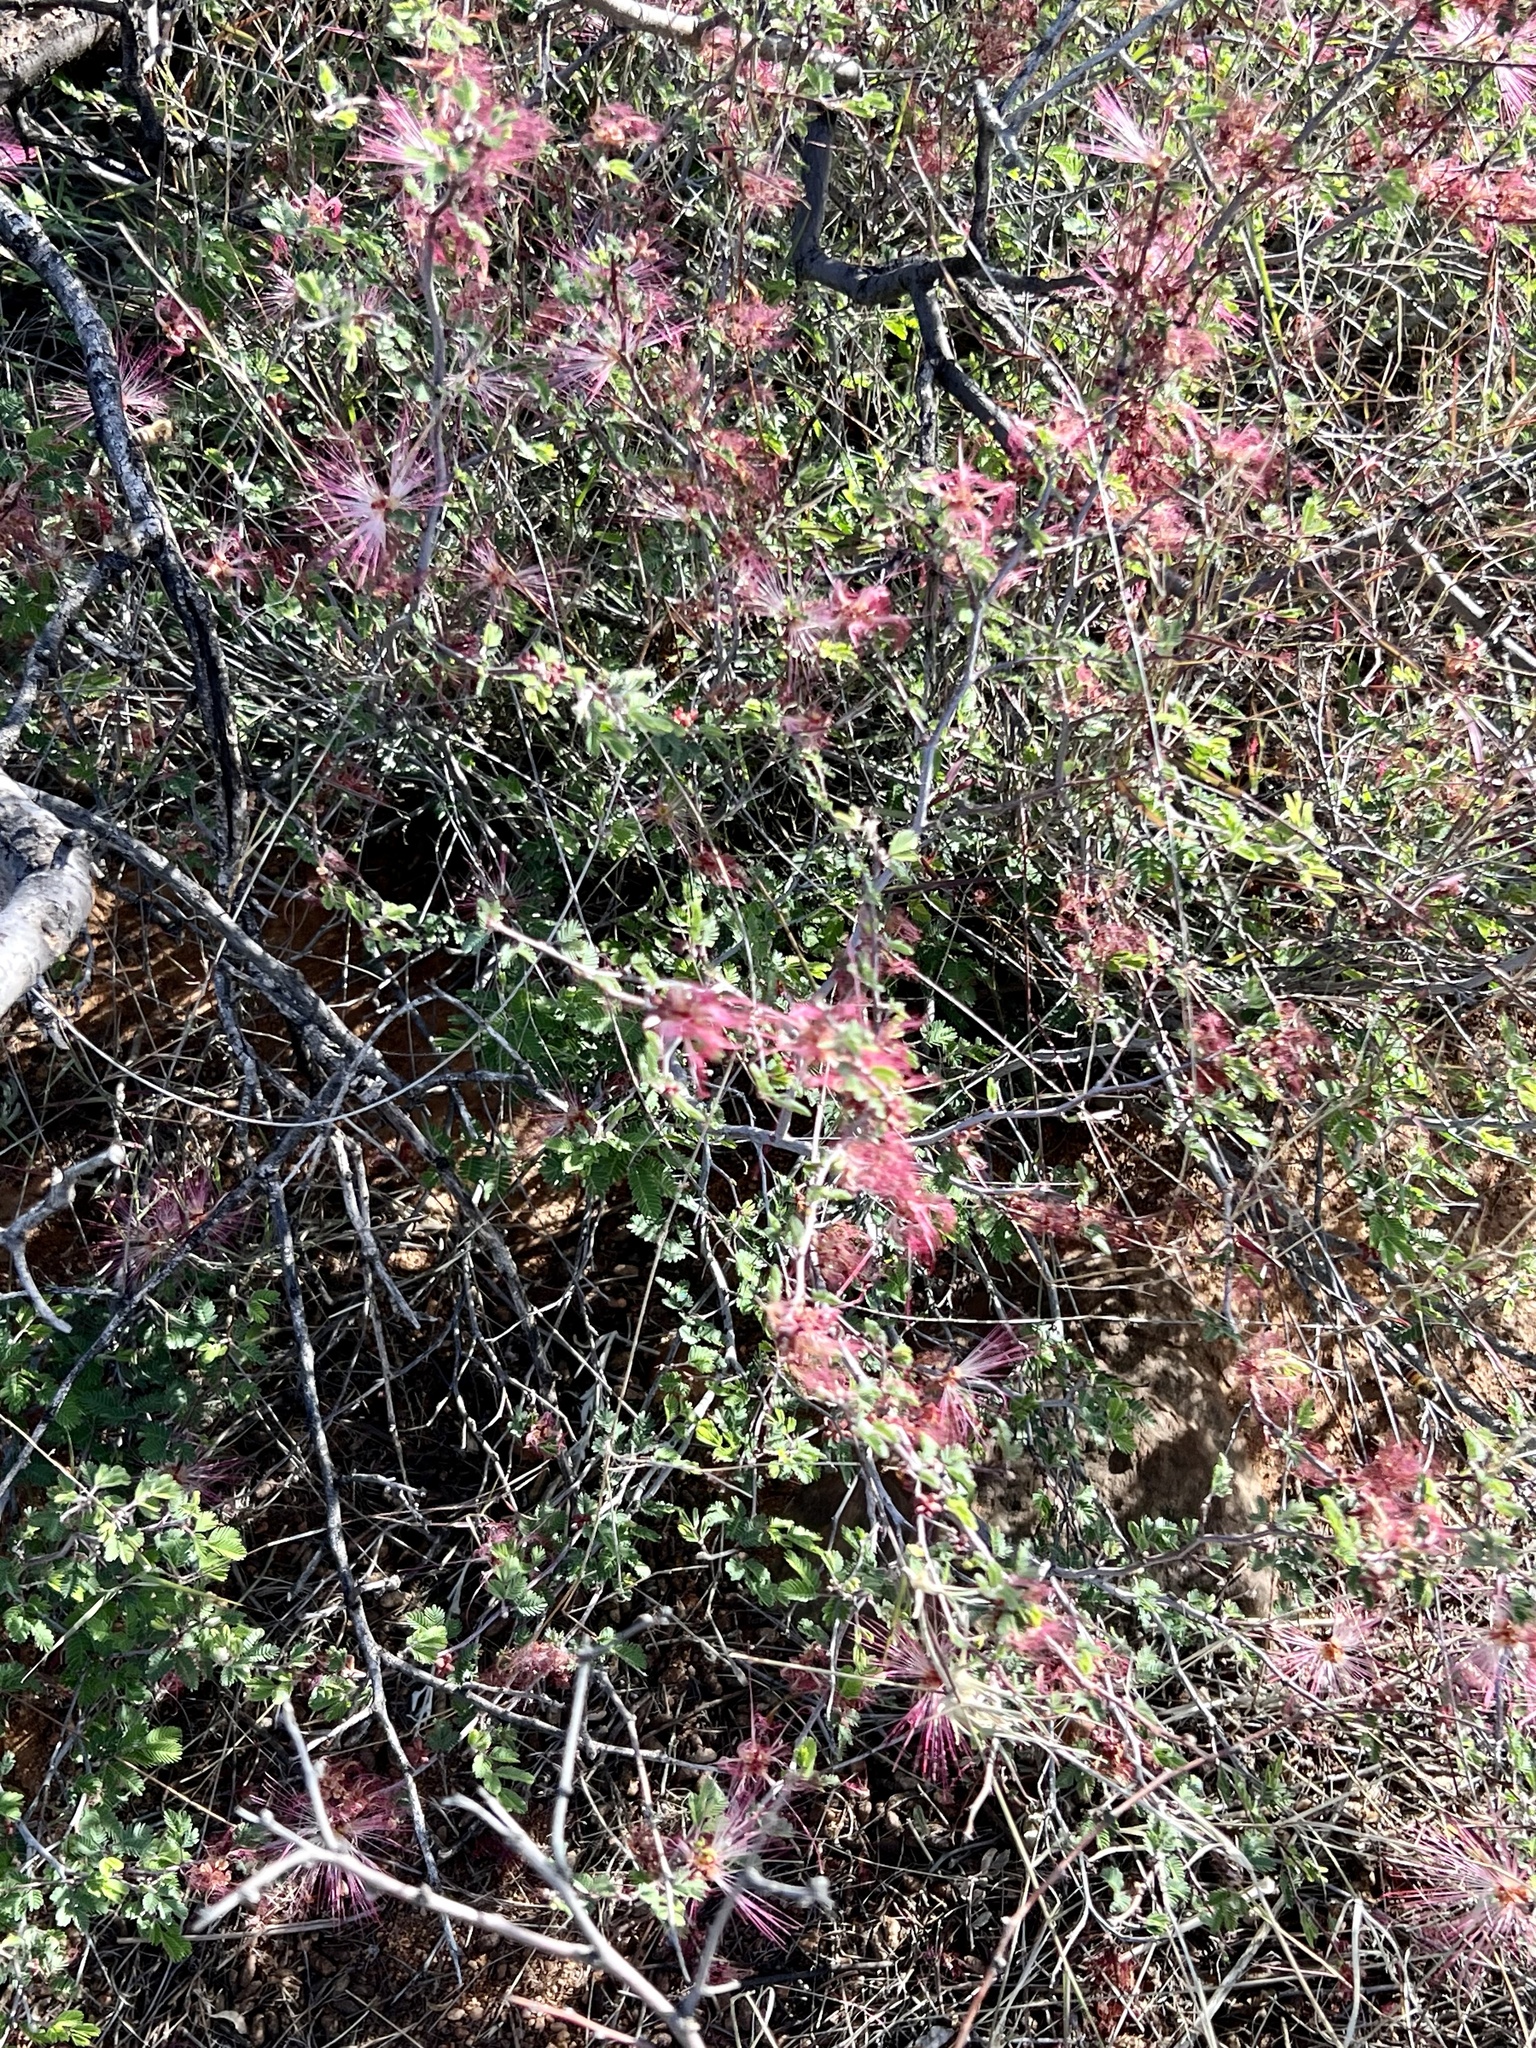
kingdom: Plantae
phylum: Tracheophyta
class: Magnoliopsida
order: Fabales
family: Fabaceae
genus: Calliandra
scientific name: Calliandra eriophylla
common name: Fairy-duster
